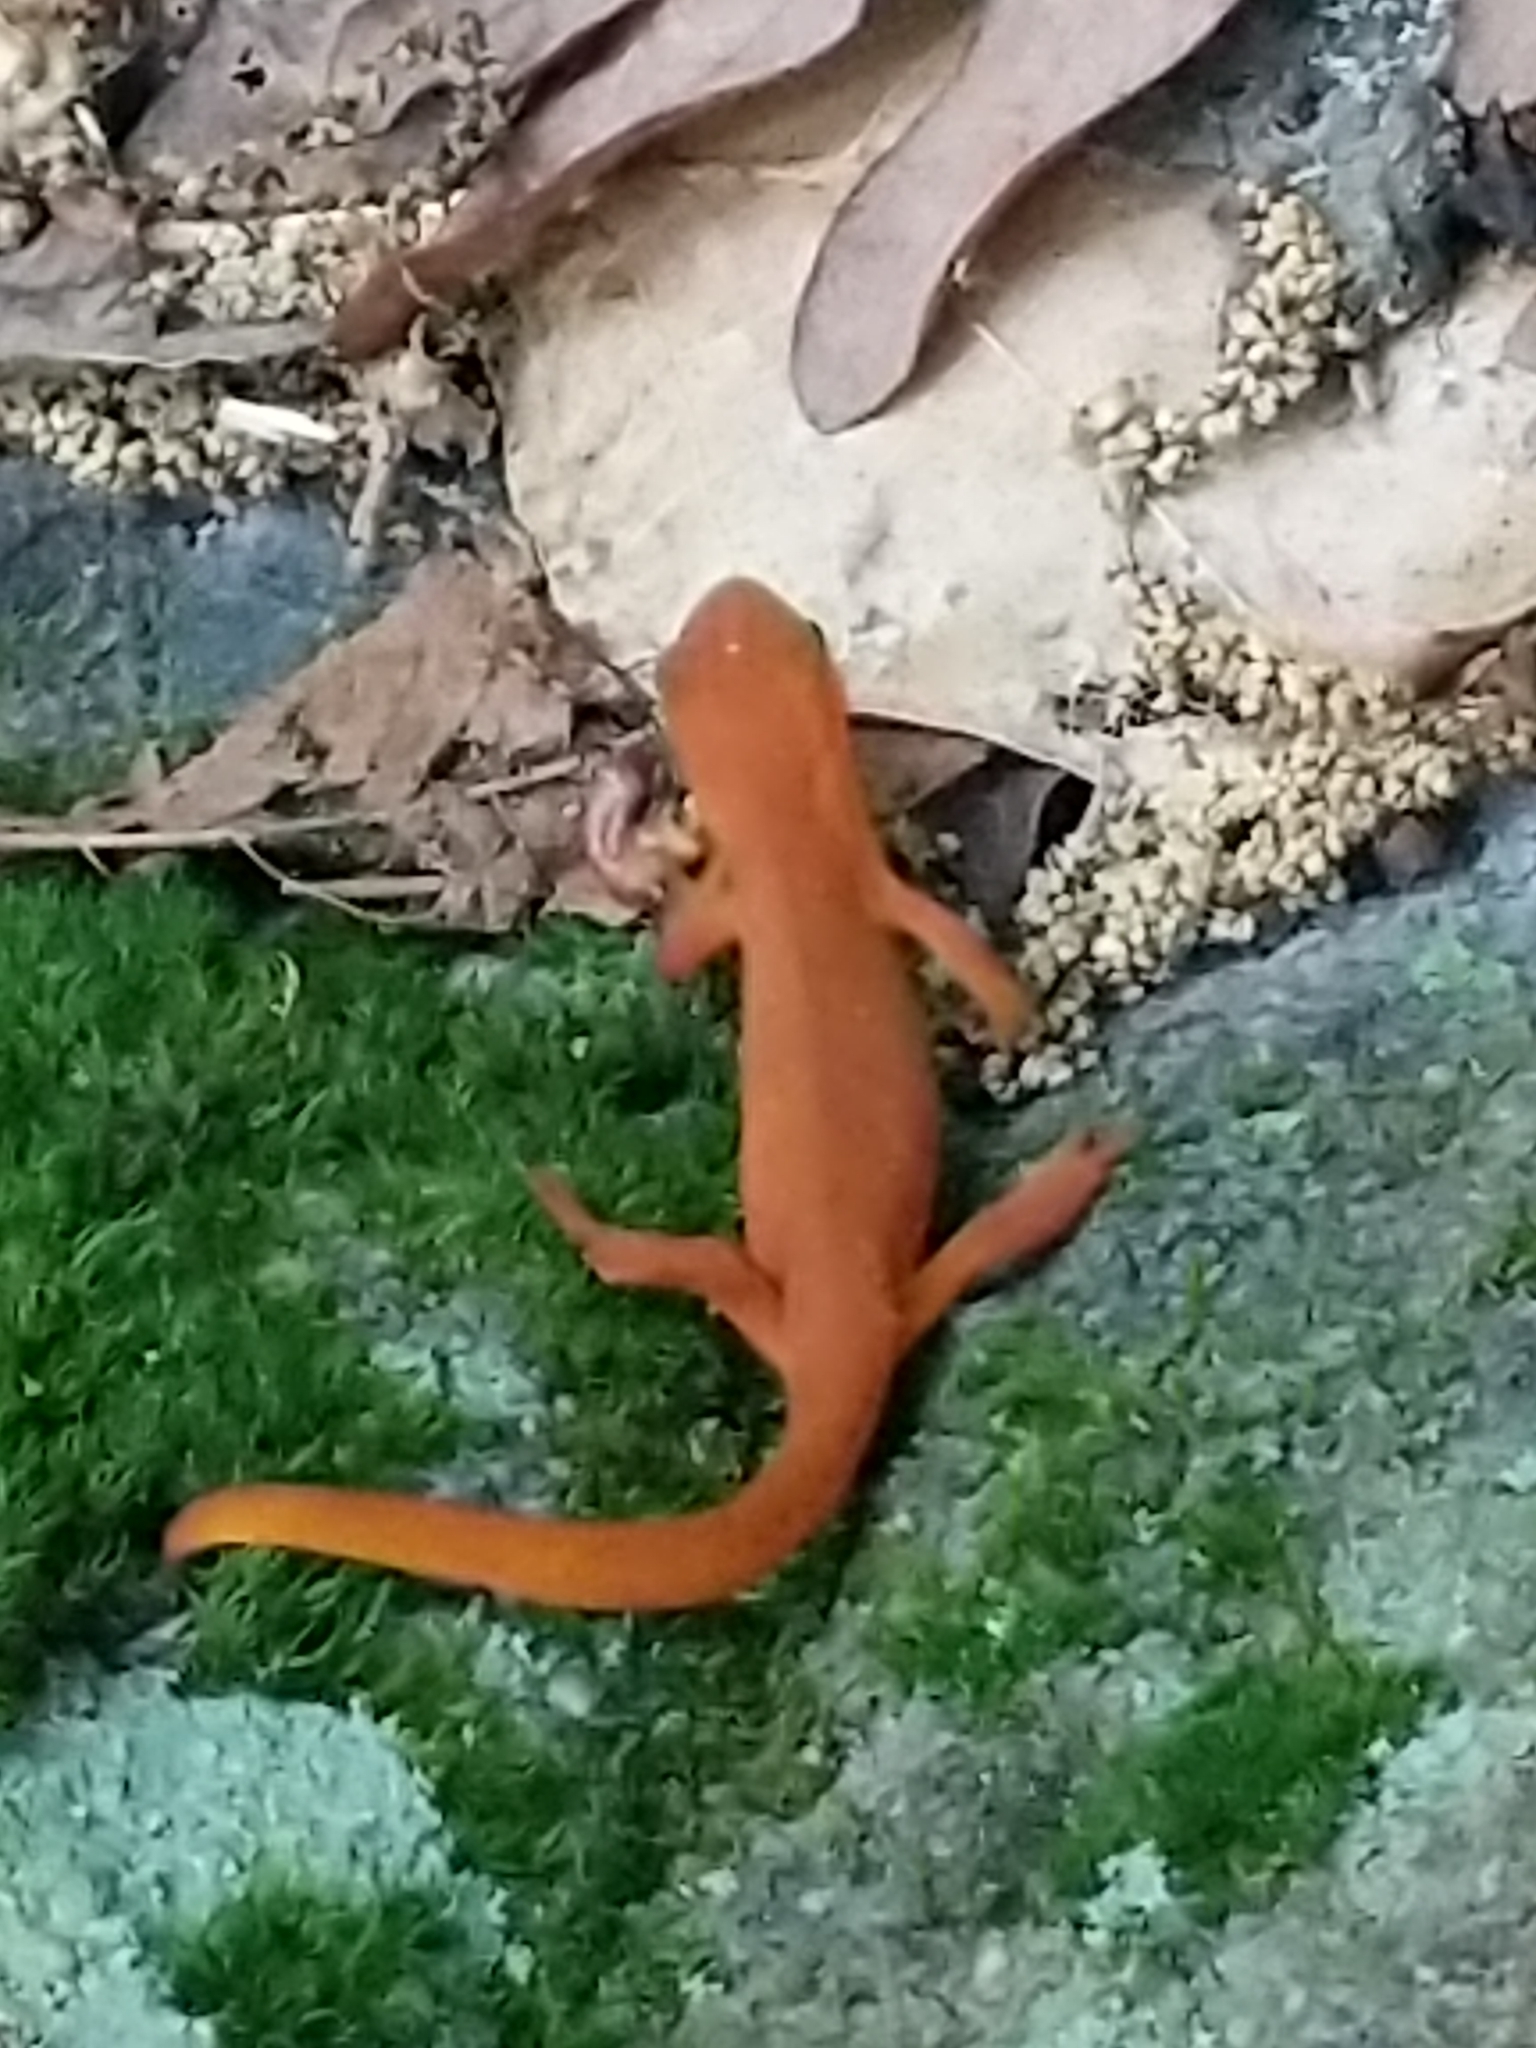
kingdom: Animalia
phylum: Chordata
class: Amphibia
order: Caudata
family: Salamandridae
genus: Notophthalmus
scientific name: Notophthalmus viridescens
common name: Eastern newt
